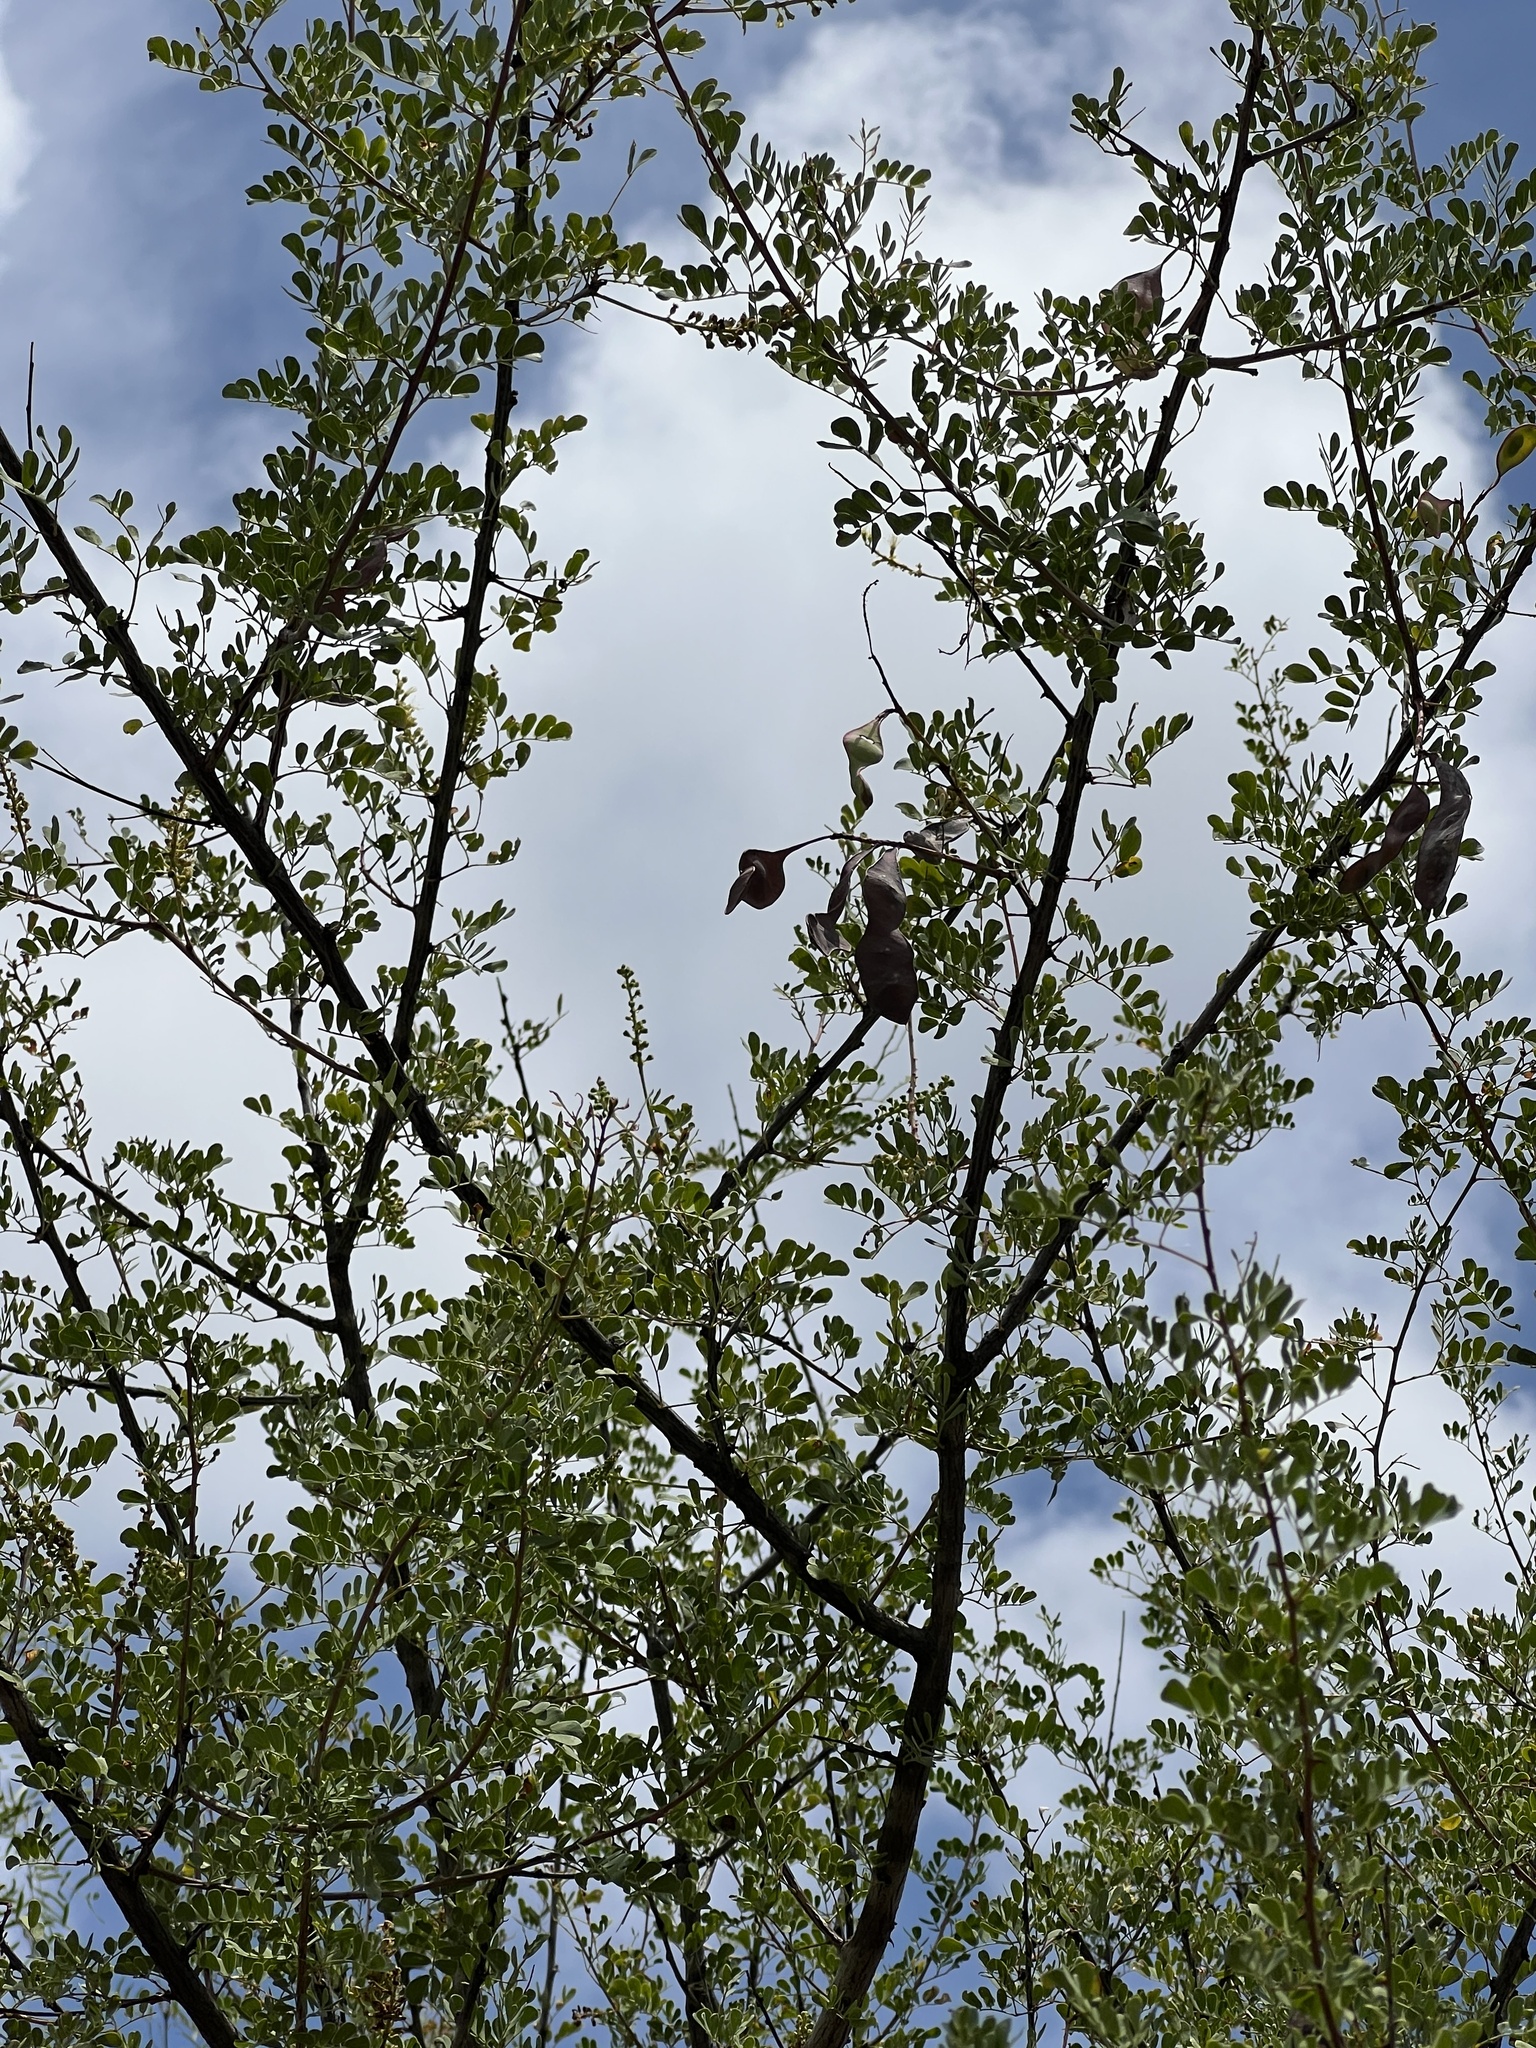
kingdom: Plantae
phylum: Tracheophyta
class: Magnoliopsida
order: Fabales
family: Fabaceae
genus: Senegalia
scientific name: Senegalia greggii
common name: Texas-mimosa
